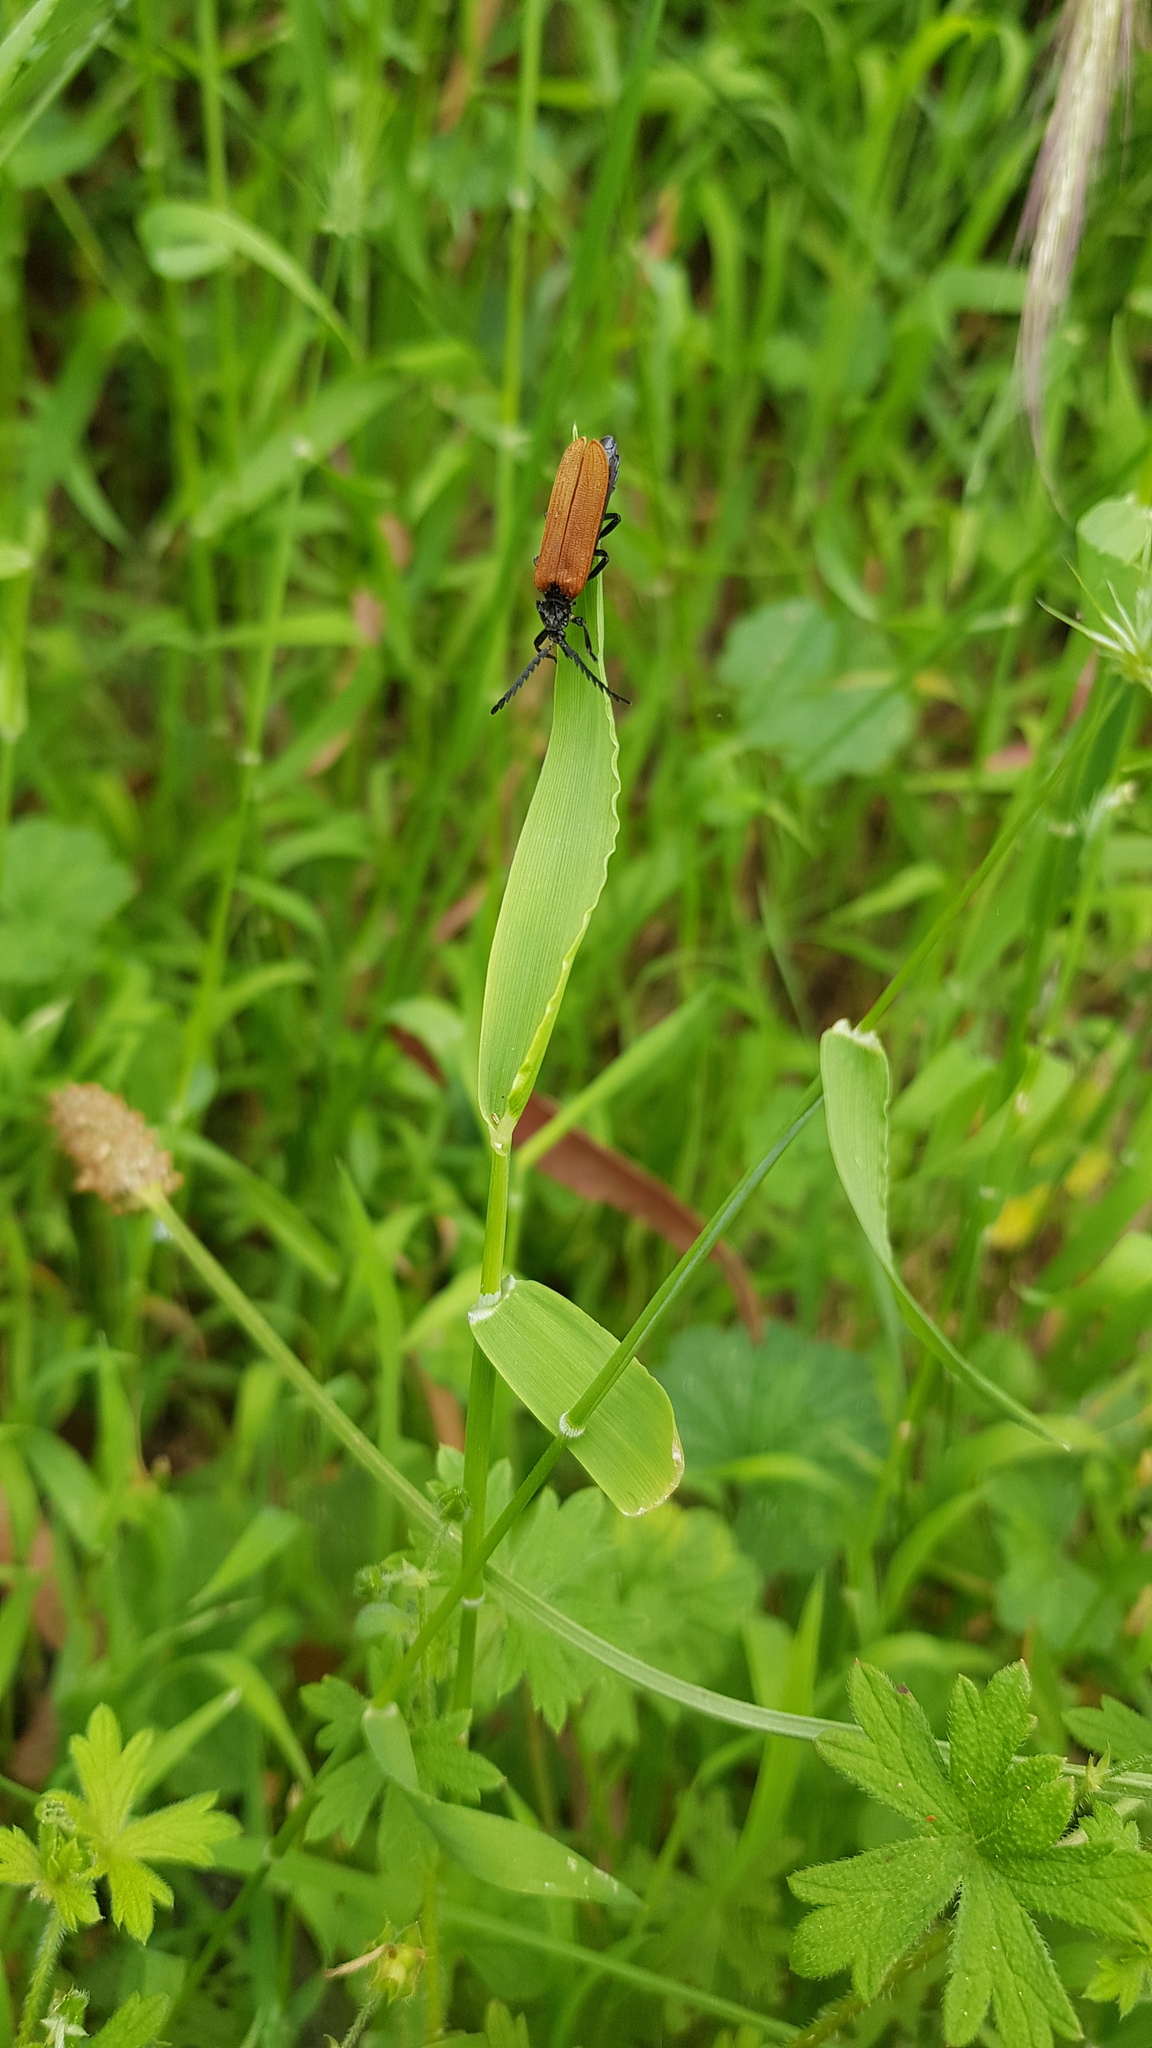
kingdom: Animalia
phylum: Arthropoda
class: Insecta
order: Coleoptera
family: Lycidae
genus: Porrostoma
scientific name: Porrostoma rhipidium
